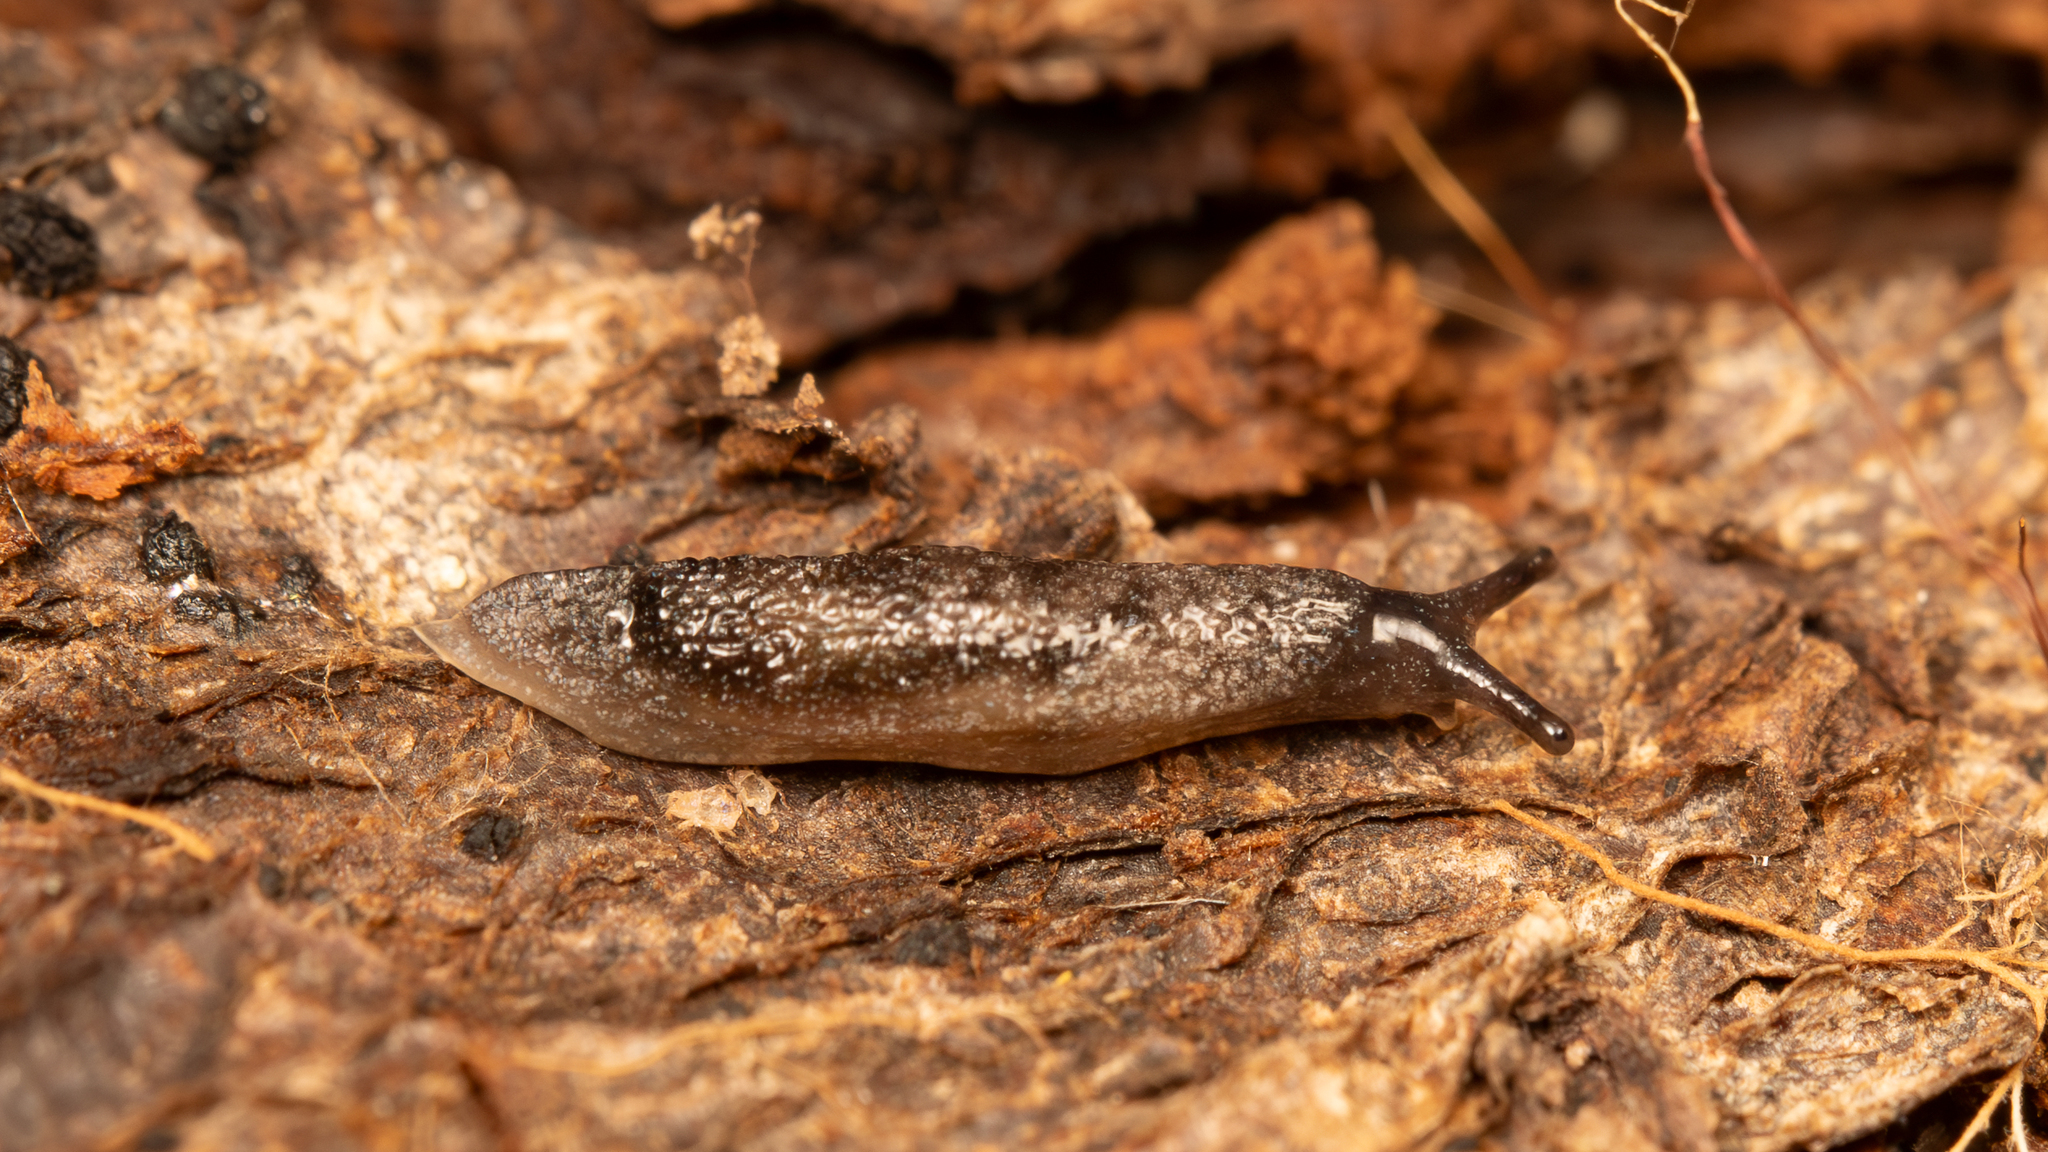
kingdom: Animalia
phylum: Mollusca
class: Gastropoda
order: Stylommatophora
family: Arionidae
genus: Securicauda
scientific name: Securicauda hermani
